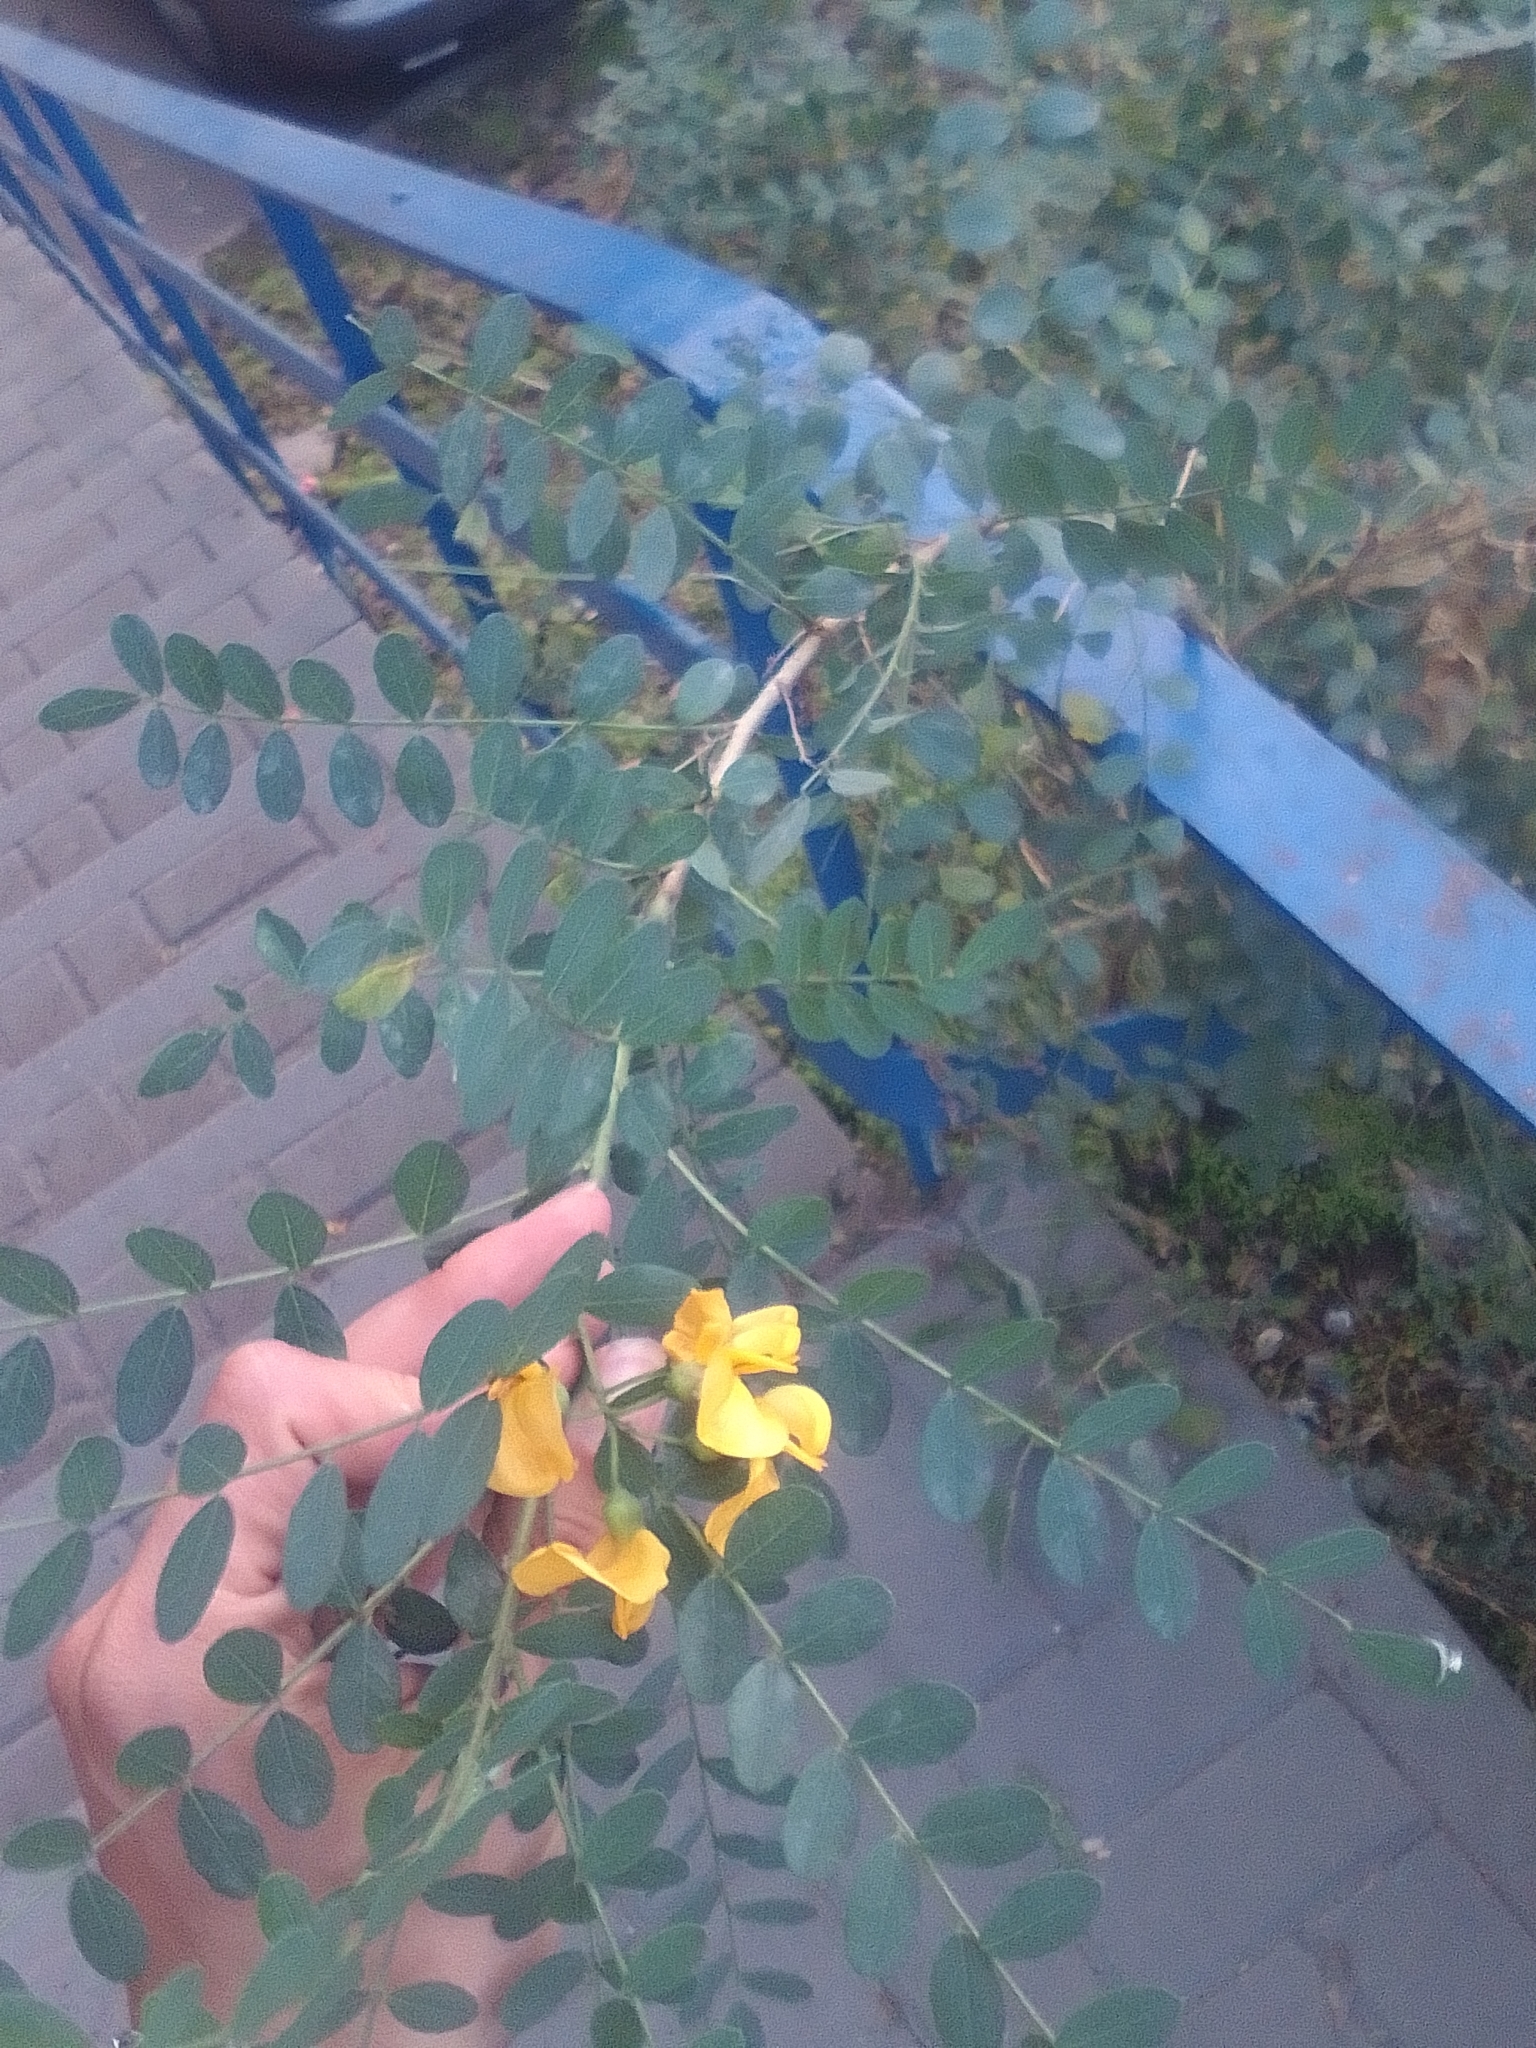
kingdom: Plantae
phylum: Tracheophyta
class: Magnoliopsida
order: Fabales
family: Fabaceae
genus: Colutea
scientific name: Colutea cilicica
